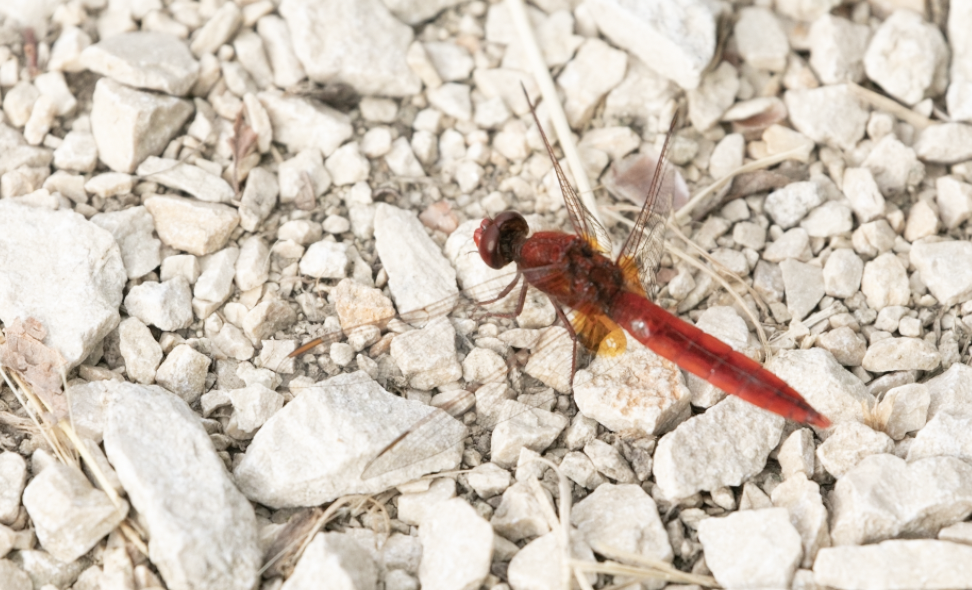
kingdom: Animalia
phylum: Arthropoda
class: Insecta
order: Odonata
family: Libellulidae
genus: Crocothemis
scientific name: Crocothemis erythraea
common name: Scarlet dragonfly
